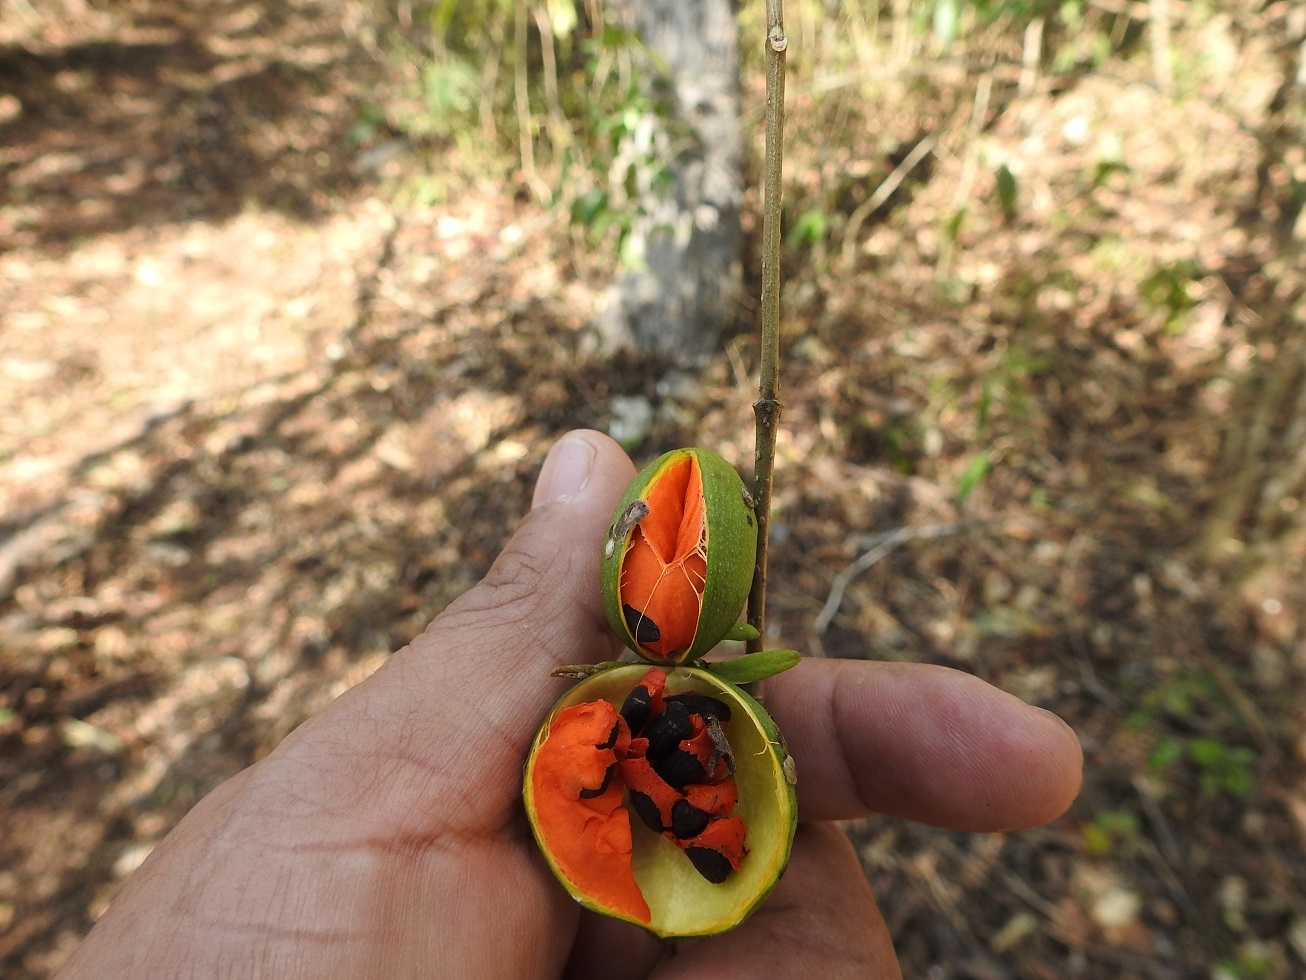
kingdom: Plantae
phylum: Tracheophyta
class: Magnoliopsida
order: Gentianales
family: Apocynaceae
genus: Tabernaemontana
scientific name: Tabernaemontana hannae
